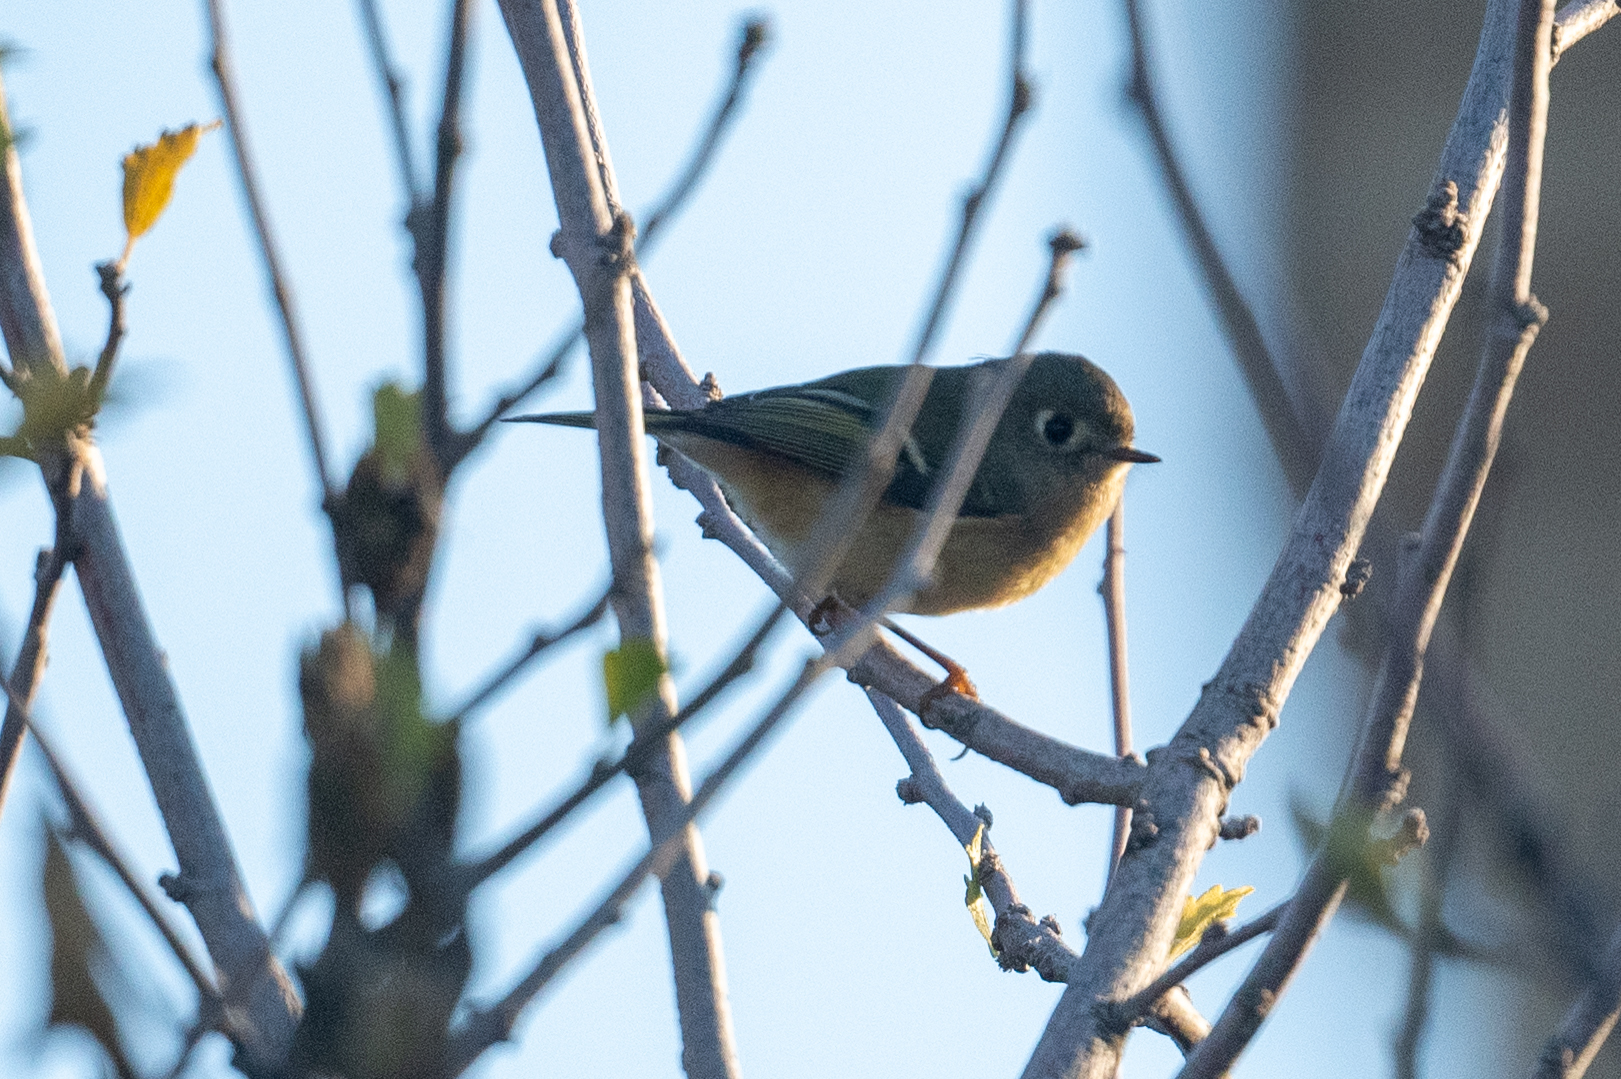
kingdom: Animalia
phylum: Chordata
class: Aves
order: Passeriformes
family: Regulidae
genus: Regulus
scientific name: Regulus calendula
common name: Ruby-crowned kinglet
